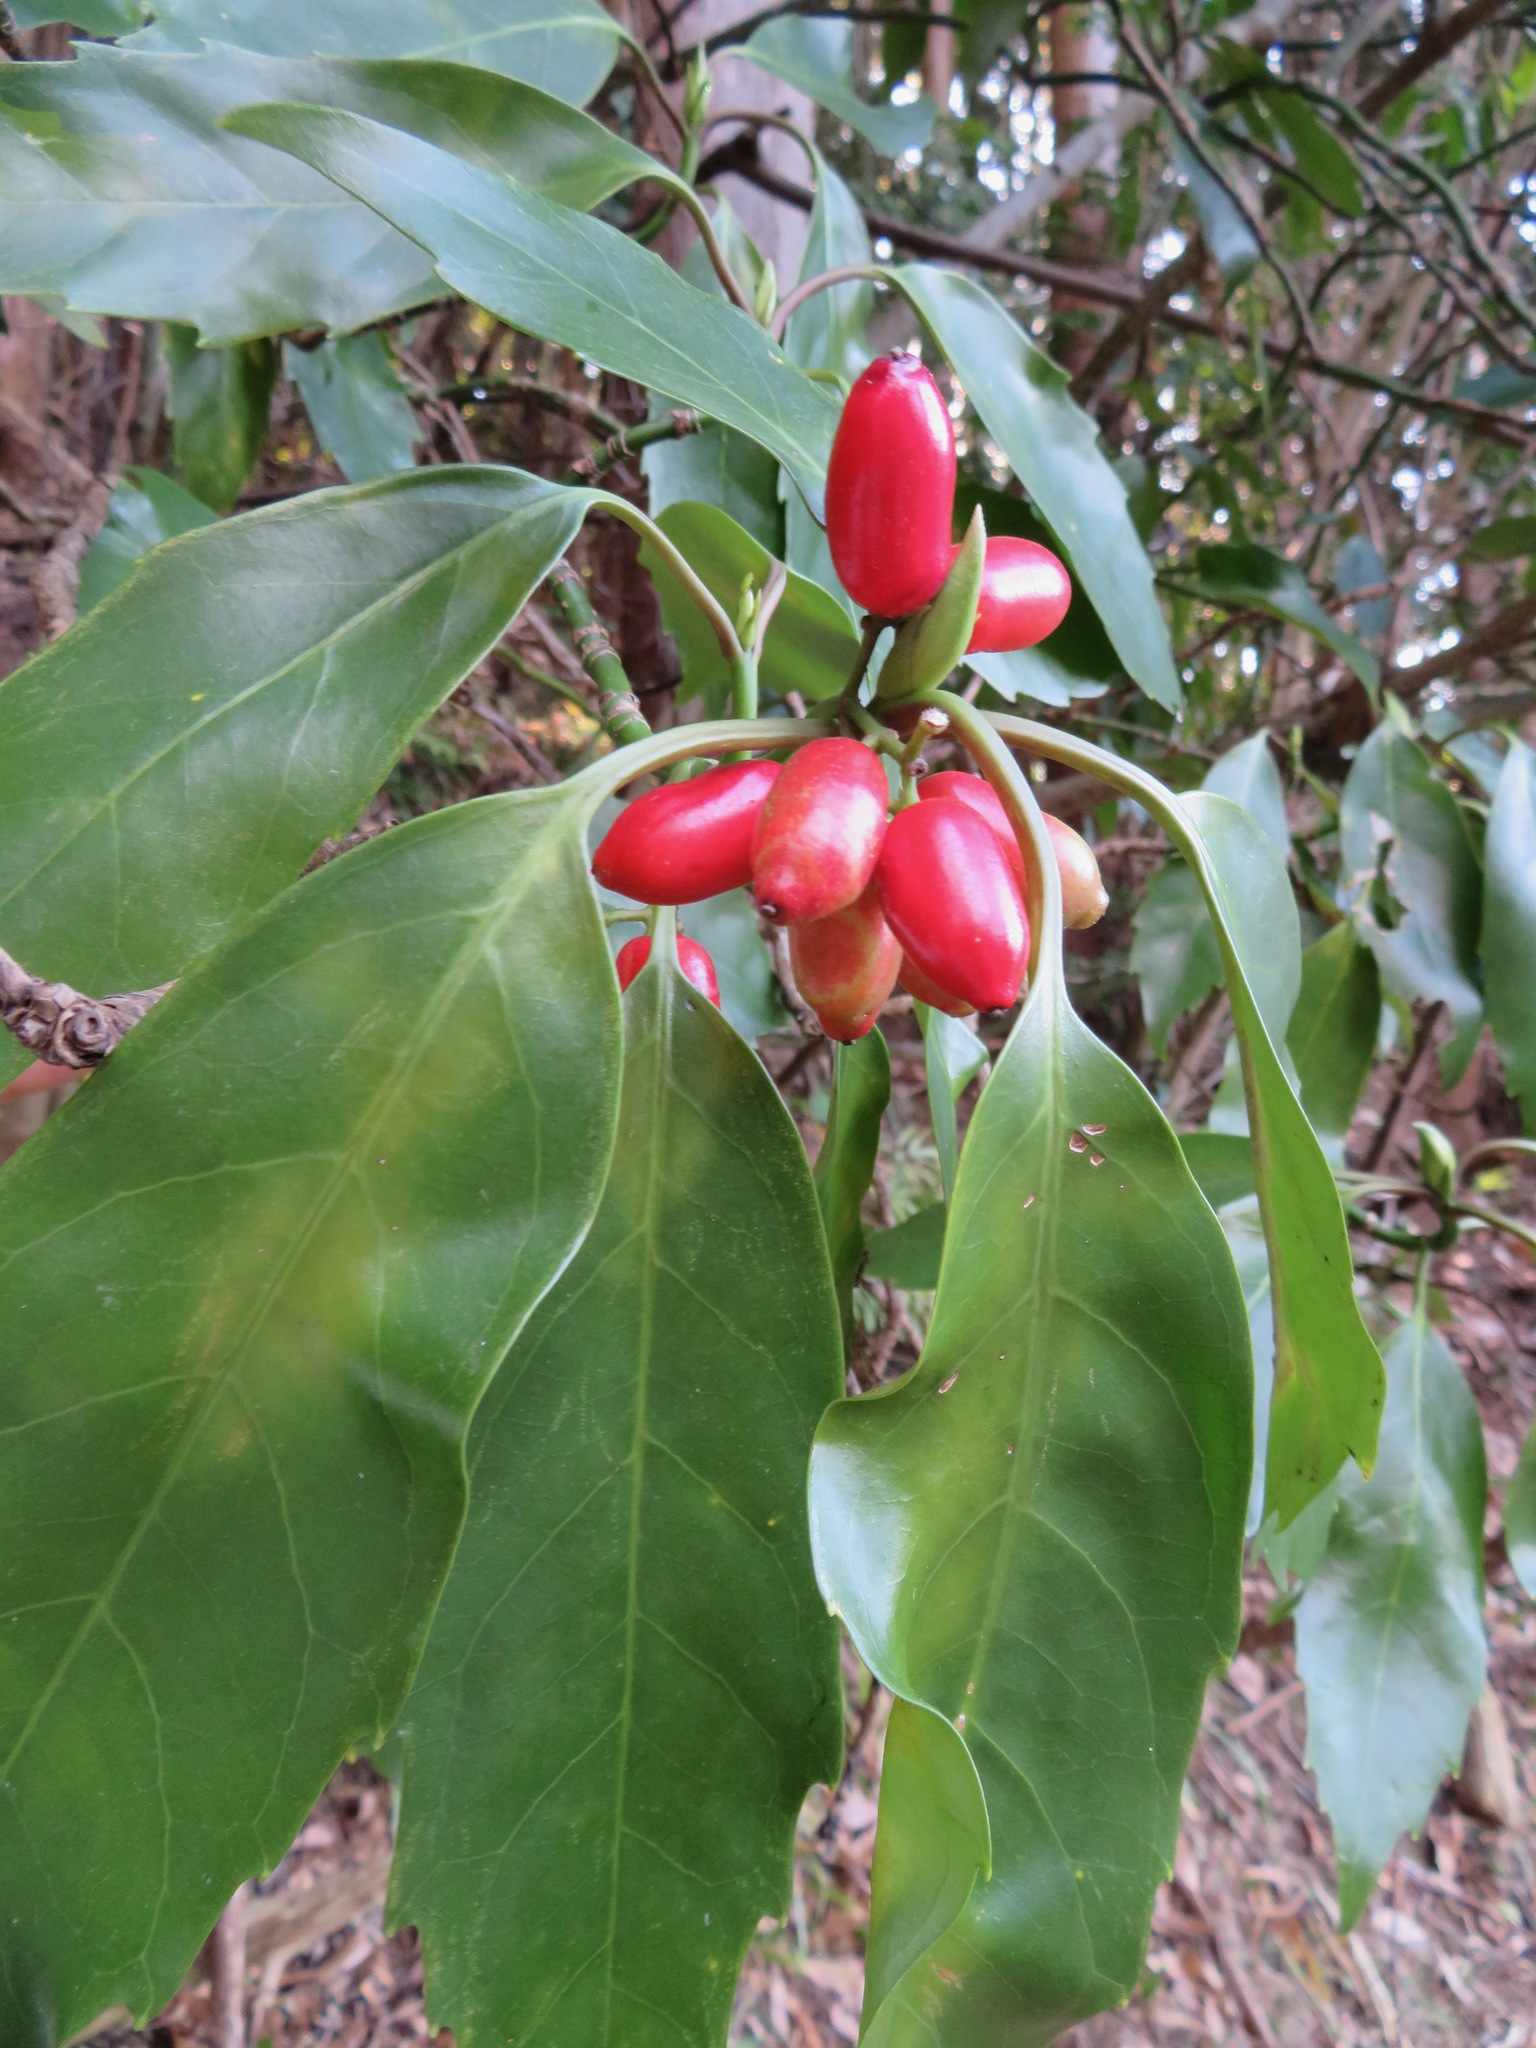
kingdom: Plantae
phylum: Tracheophyta
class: Magnoliopsida
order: Garryales
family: Garryaceae
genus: Aucuba
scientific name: Aucuba japonica
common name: Spotted-laurel
